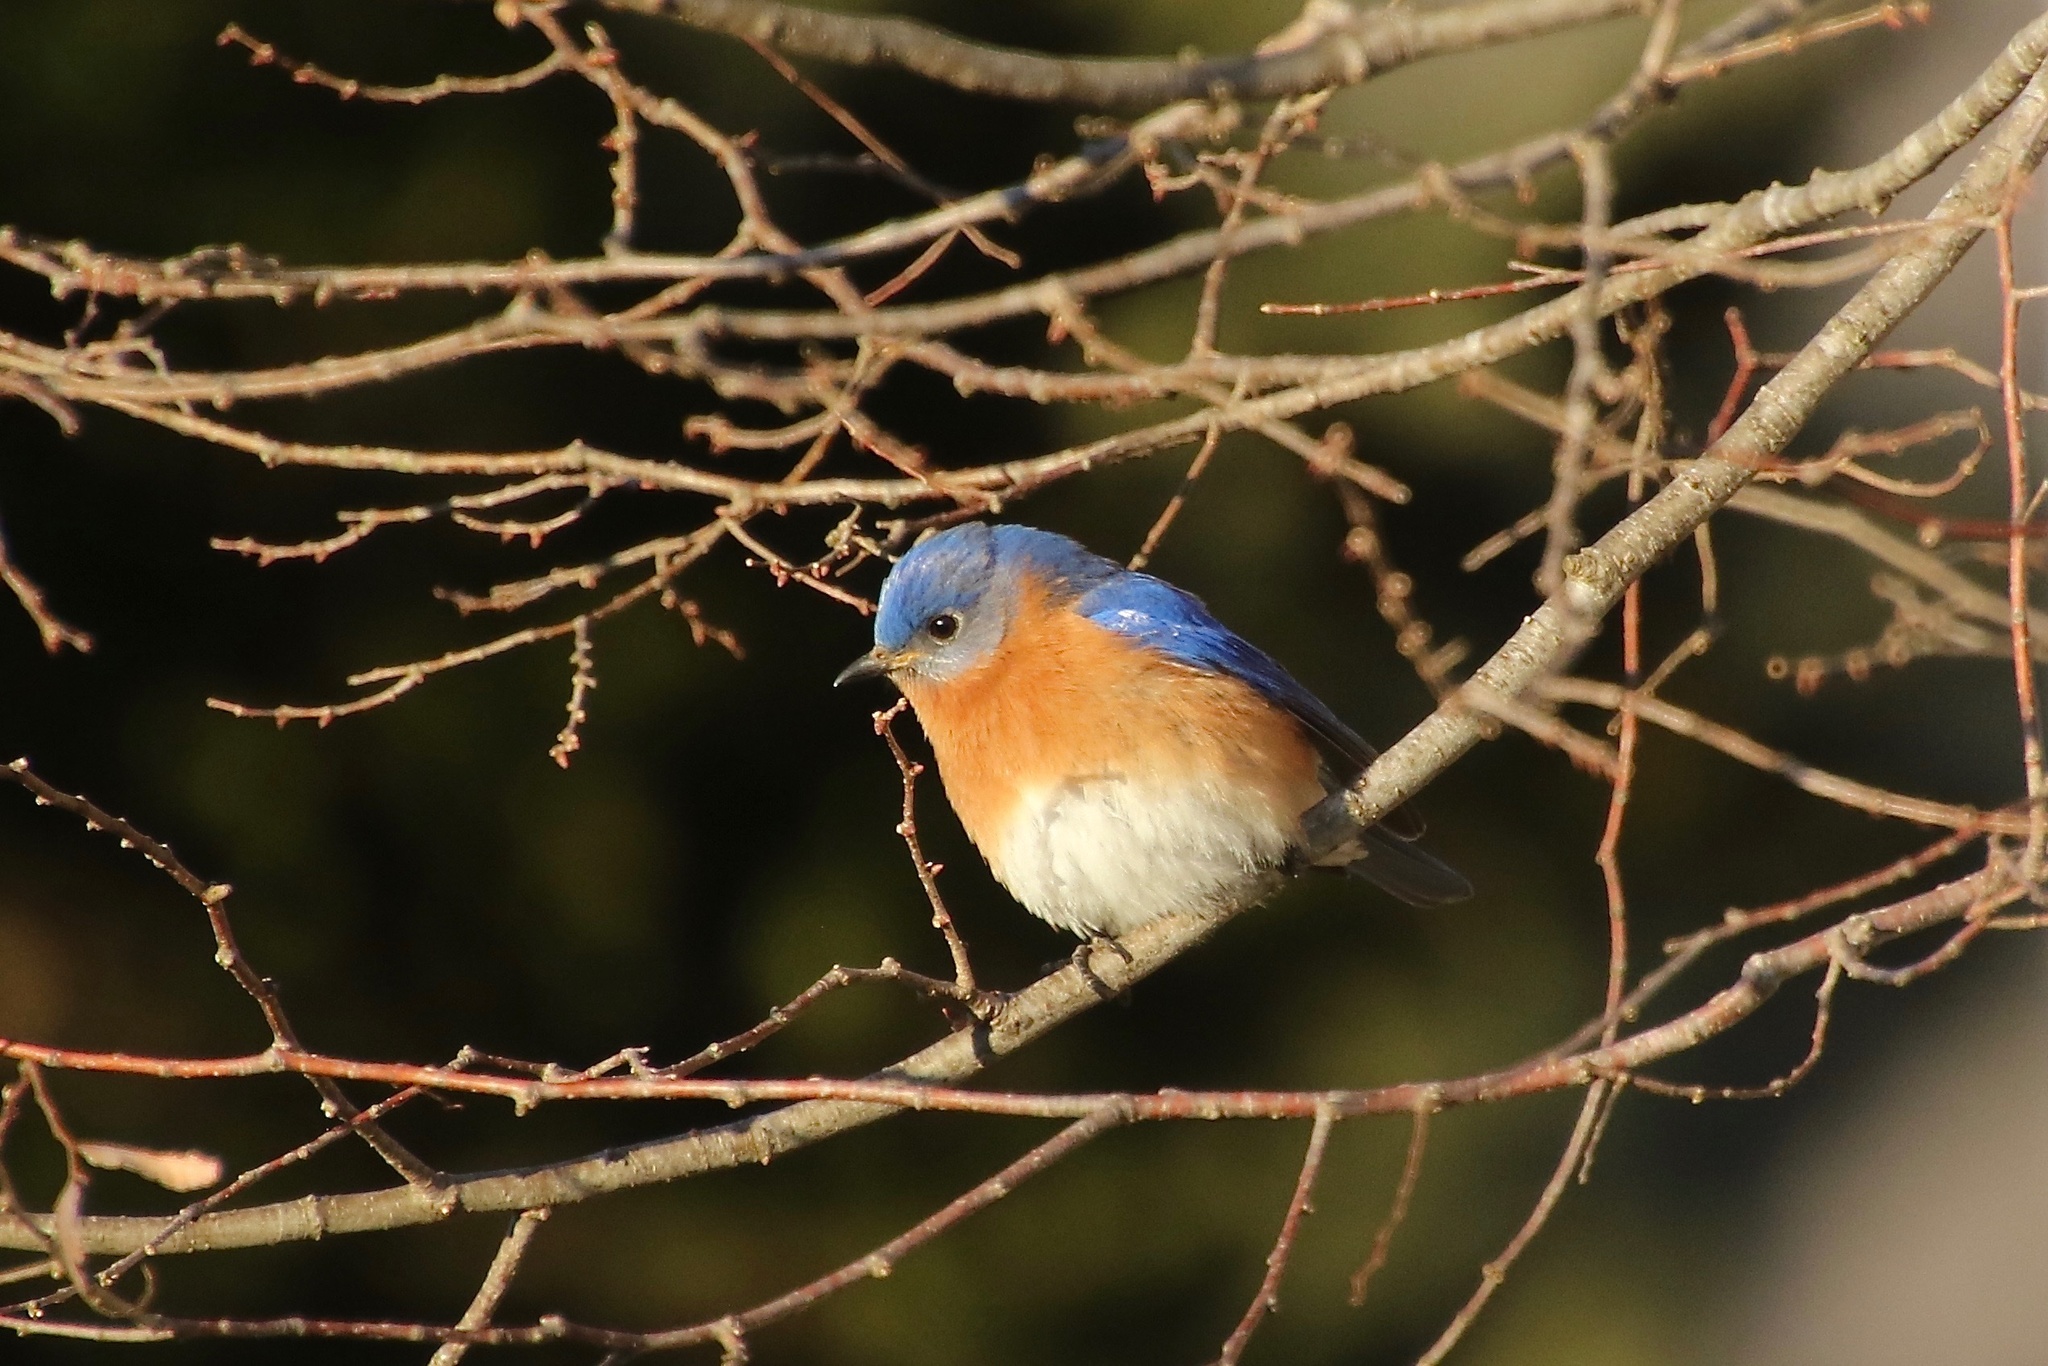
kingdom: Animalia
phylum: Chordata
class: Aves
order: Passeriformes
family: Turdidae
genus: Sialia
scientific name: Sialia sialis
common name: Eastern bluebird
